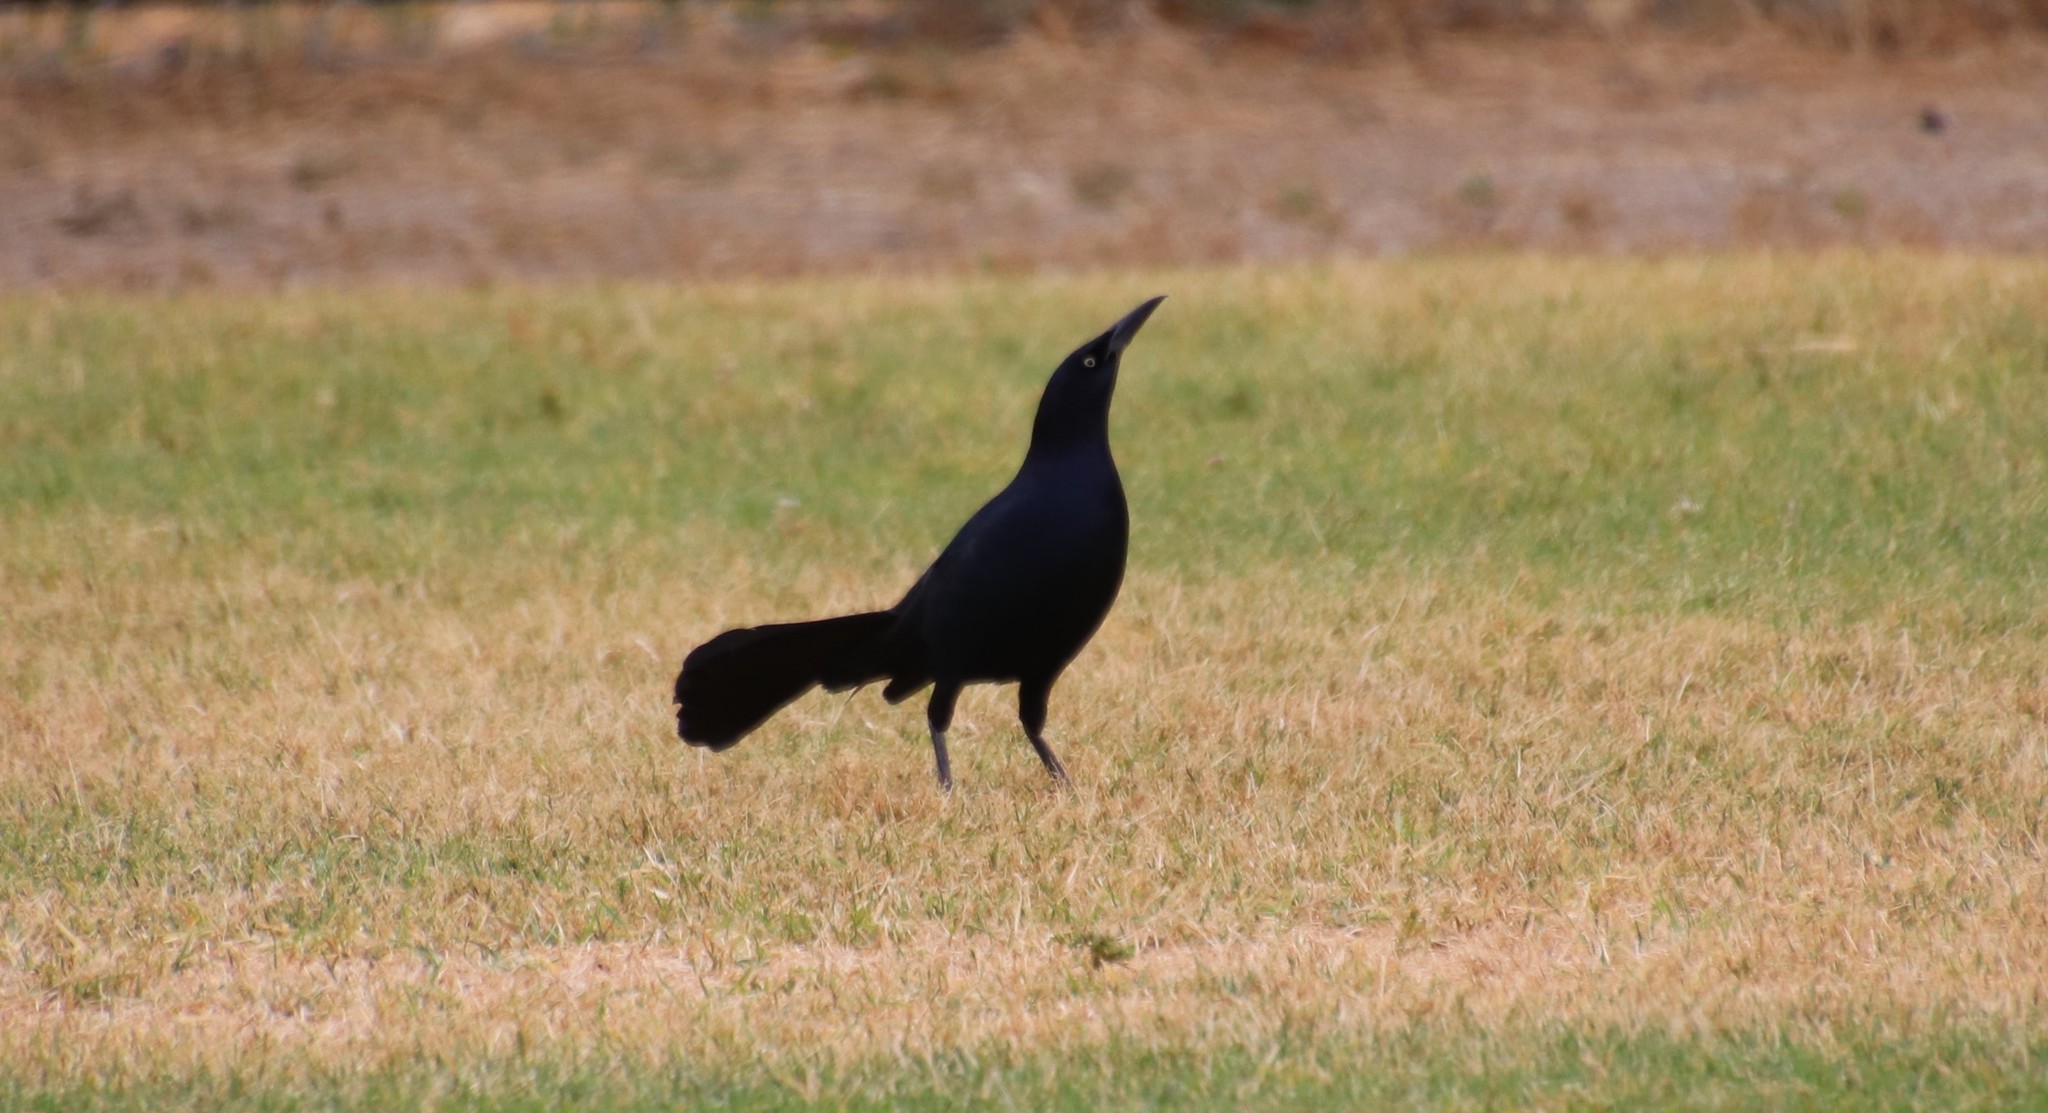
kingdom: Animalia
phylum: Chordata
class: Aves
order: Passeriformes
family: Icteridae
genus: Quiscalus
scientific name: Quiscalus mexicanus
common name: Great-tailed grackle
